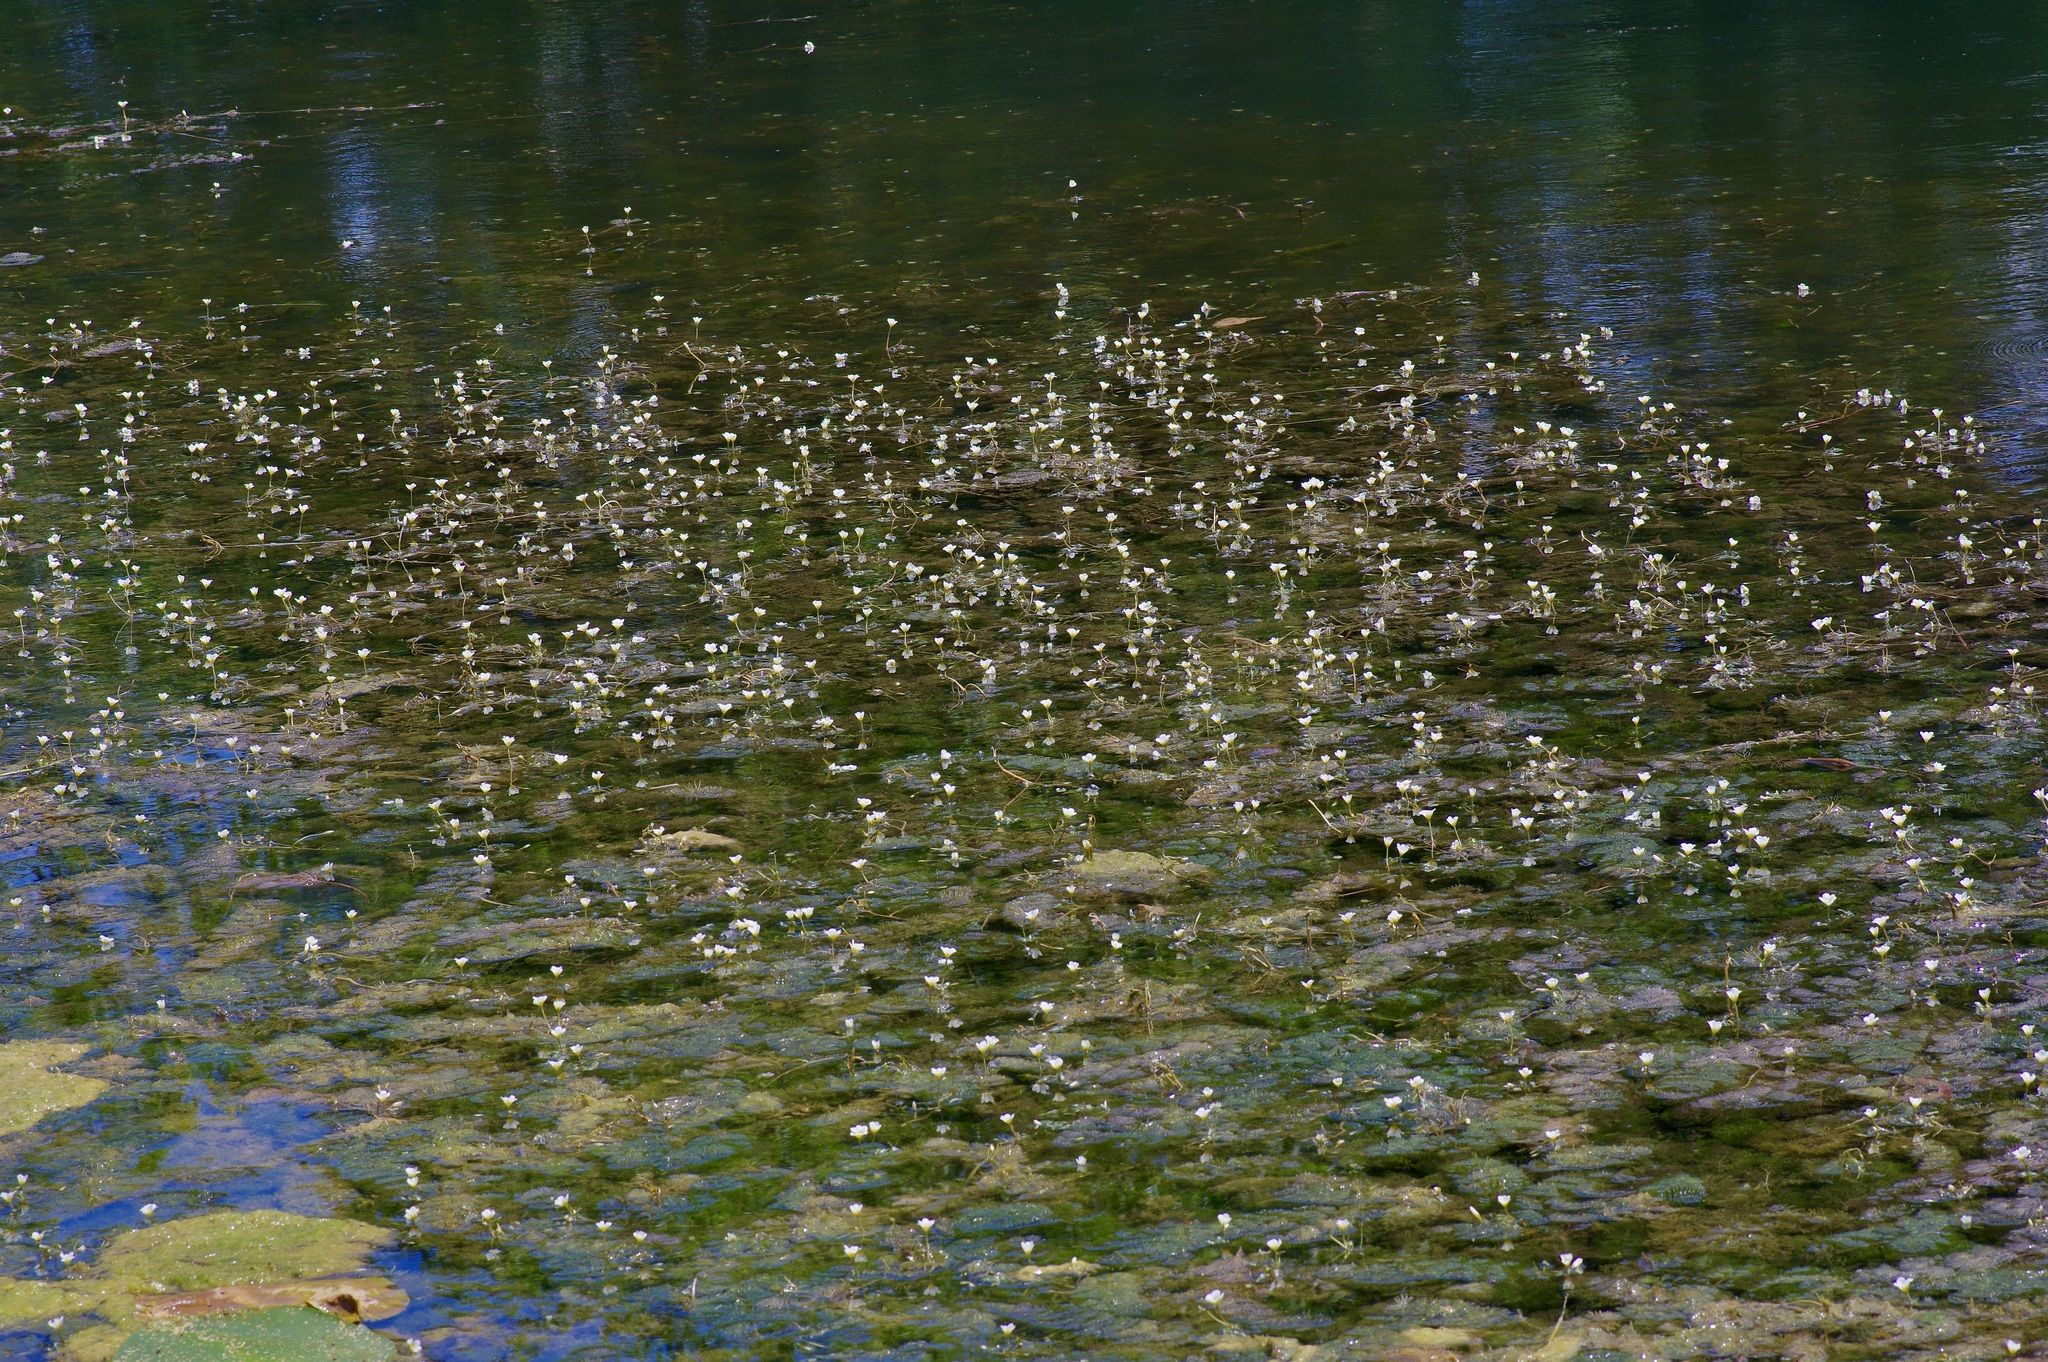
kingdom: Plantae
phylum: Tracheophyta
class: Magnoliopsida
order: Nymphaeales
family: Cabombaceae
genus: Cabomba
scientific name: Cabomba caroliniana
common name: Fanwort
